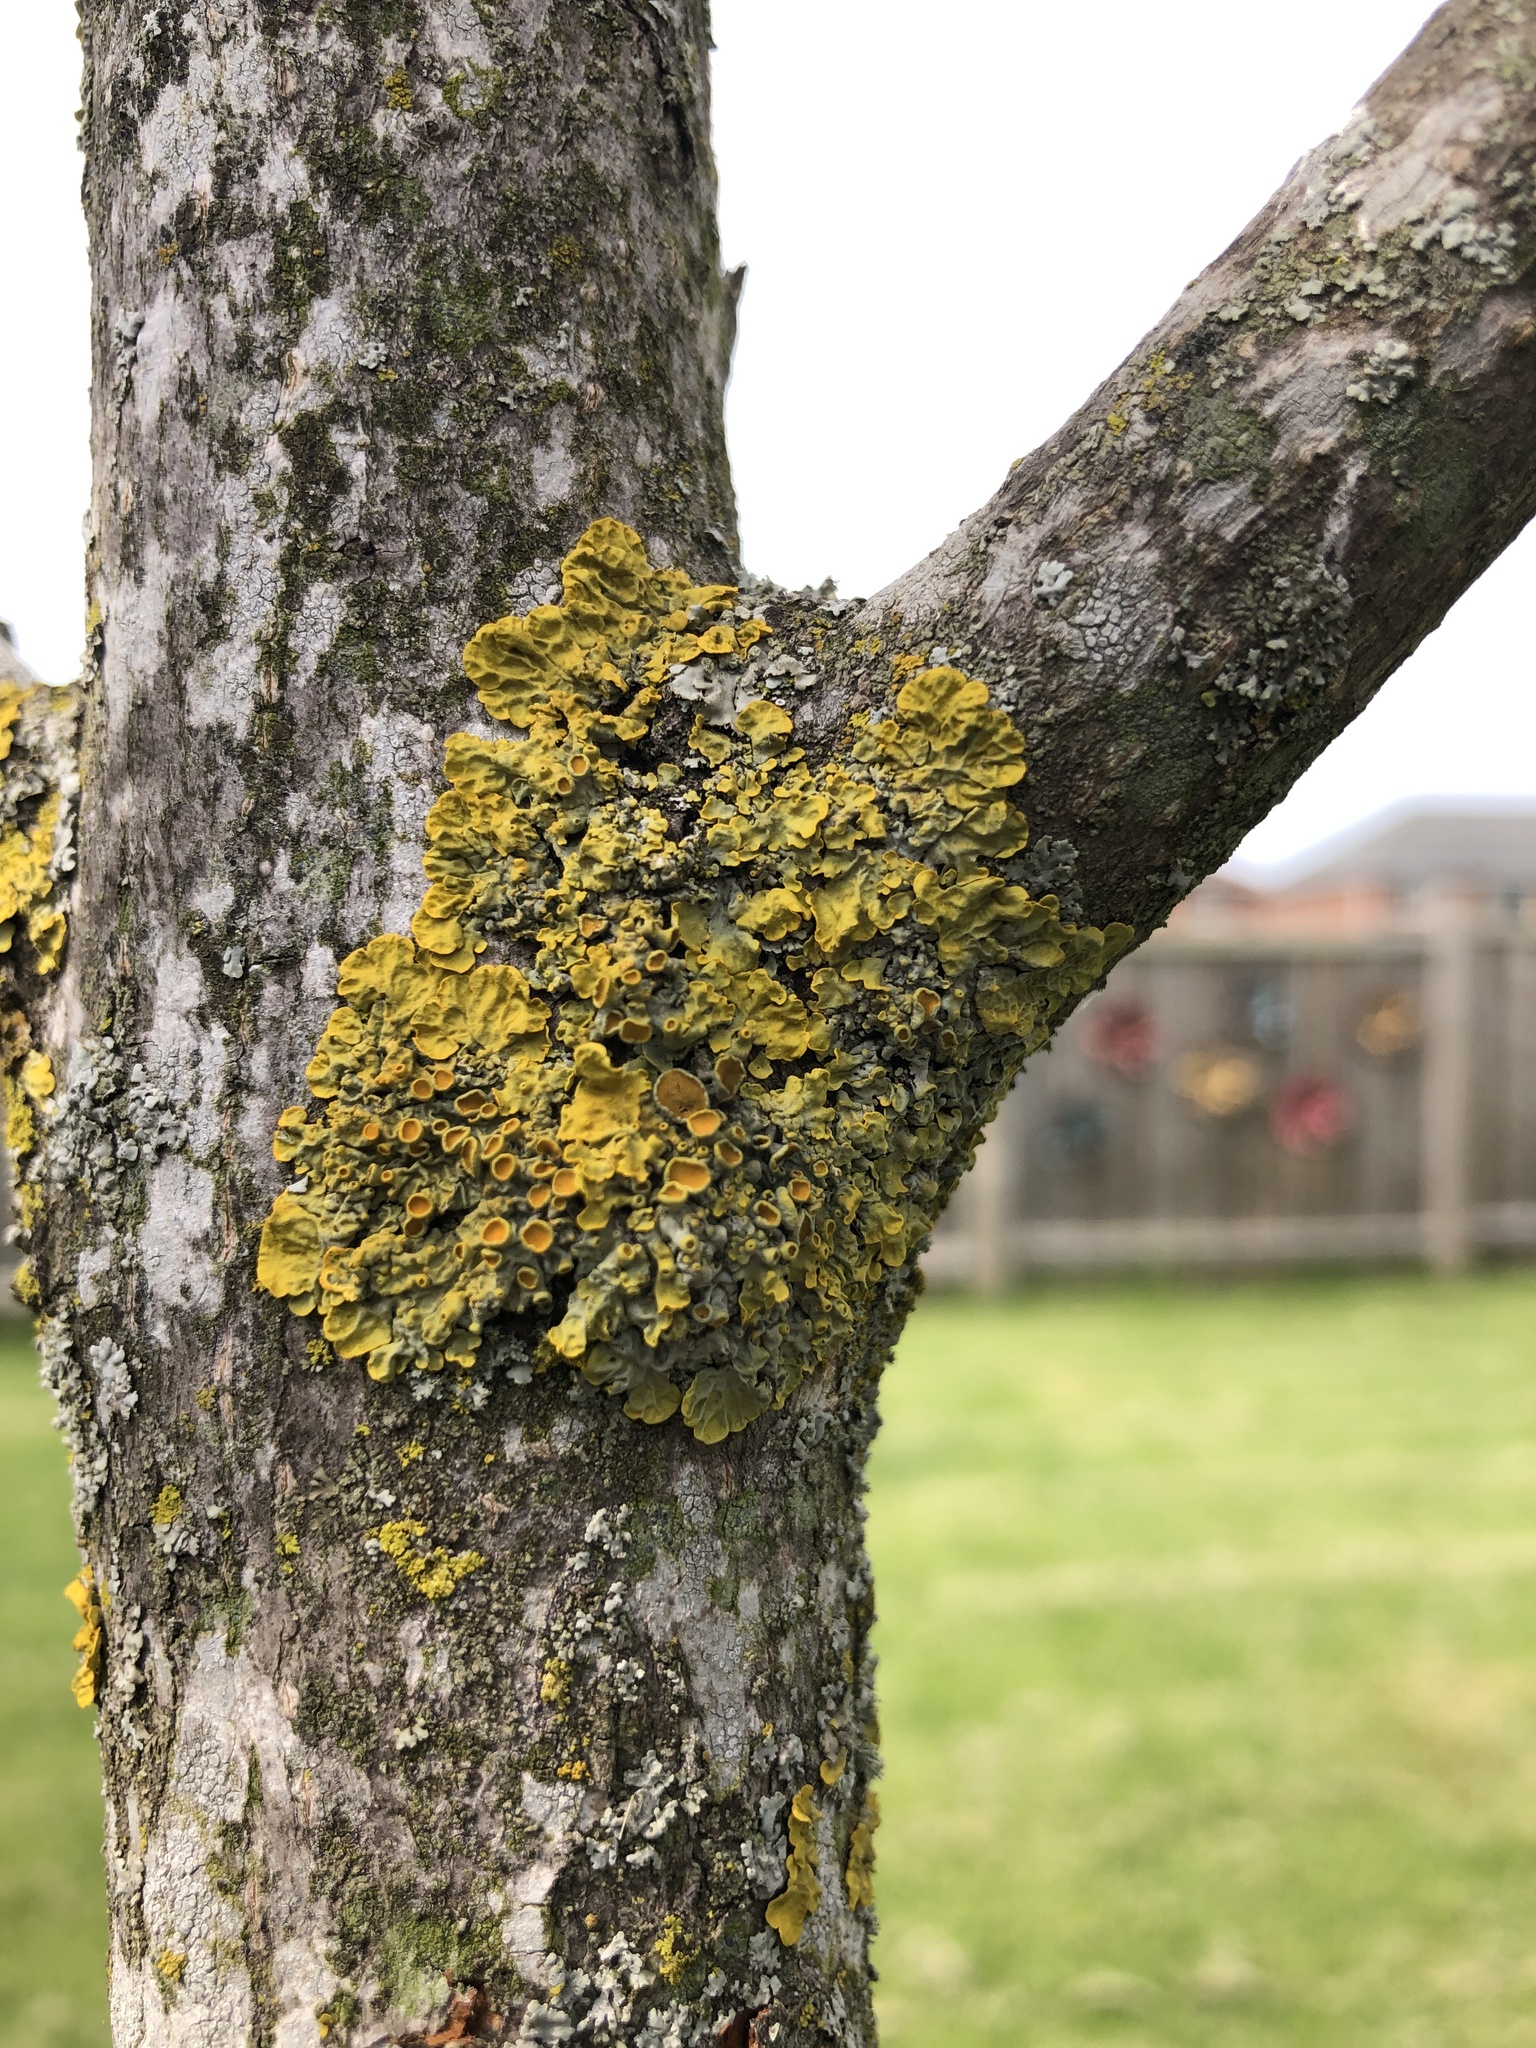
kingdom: Fungi
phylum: Ascomycota
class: Lecanoromycetes
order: Teloschistales
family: Teloschistaceae
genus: Xanthoria
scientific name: Xanthoria parietina
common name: Common orange lichen
